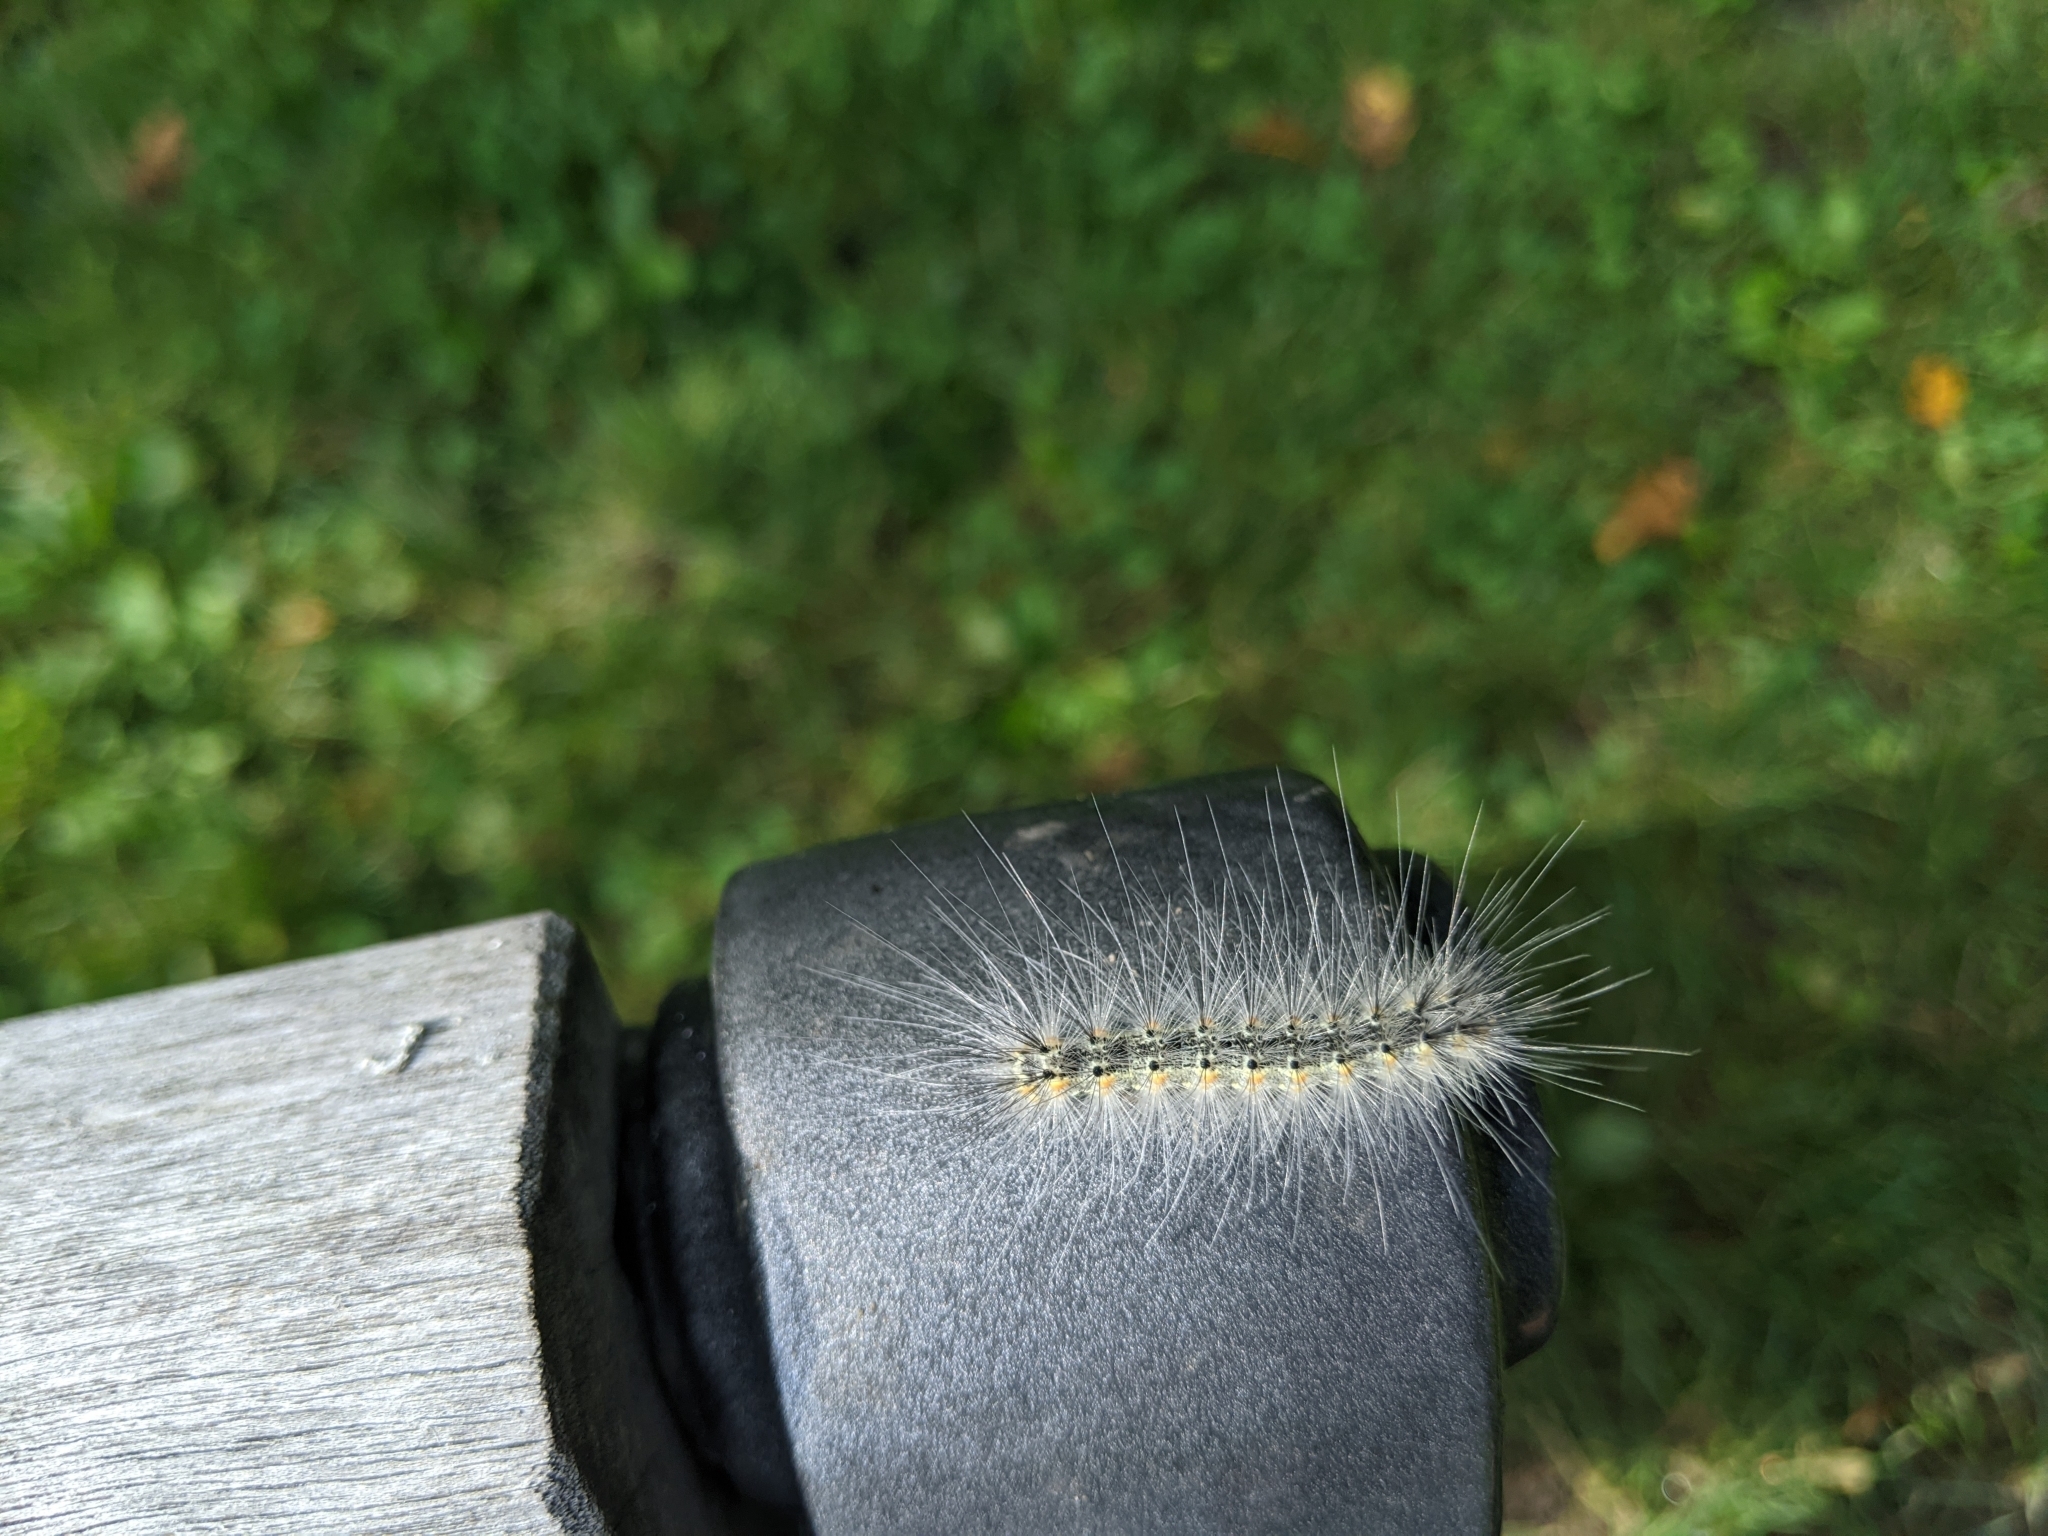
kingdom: Animalia
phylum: Arthropoda
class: Insecta
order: Lepidoptera
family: Erebidae
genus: Hyphantria
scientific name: Hyphantria cunea
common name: American white moth
